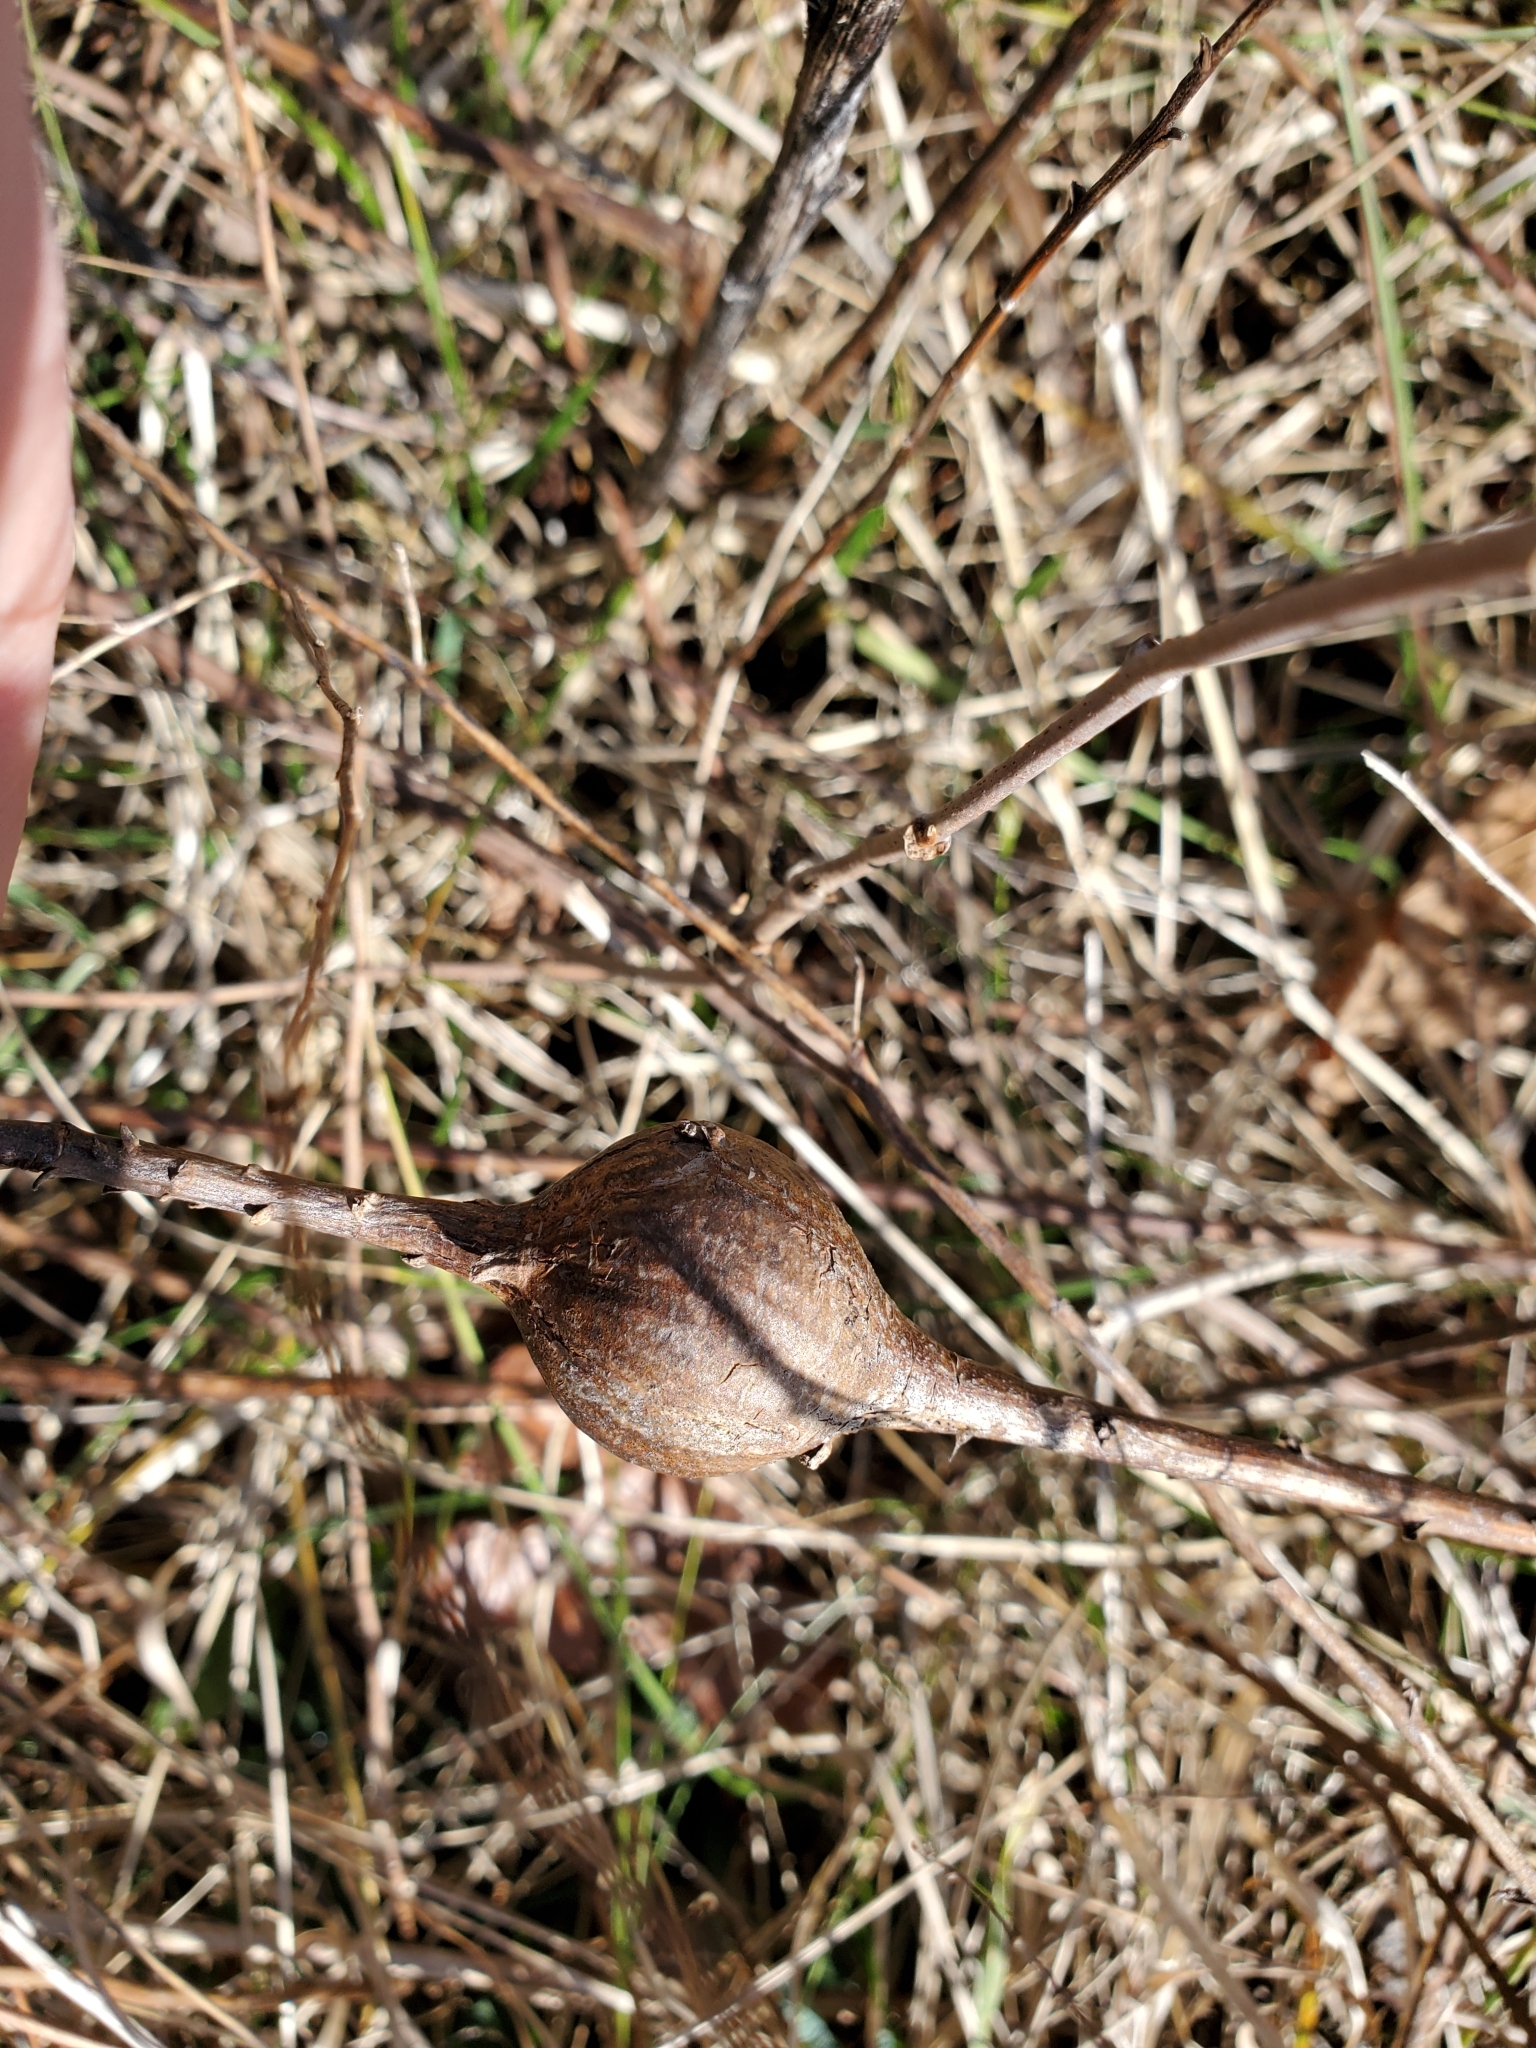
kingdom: Animalia
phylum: Arthropoda
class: Insecta
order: Diptera
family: Tephritidae
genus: Eurosta
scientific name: Eurosta solidaginis
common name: Goldenrod gall fly
